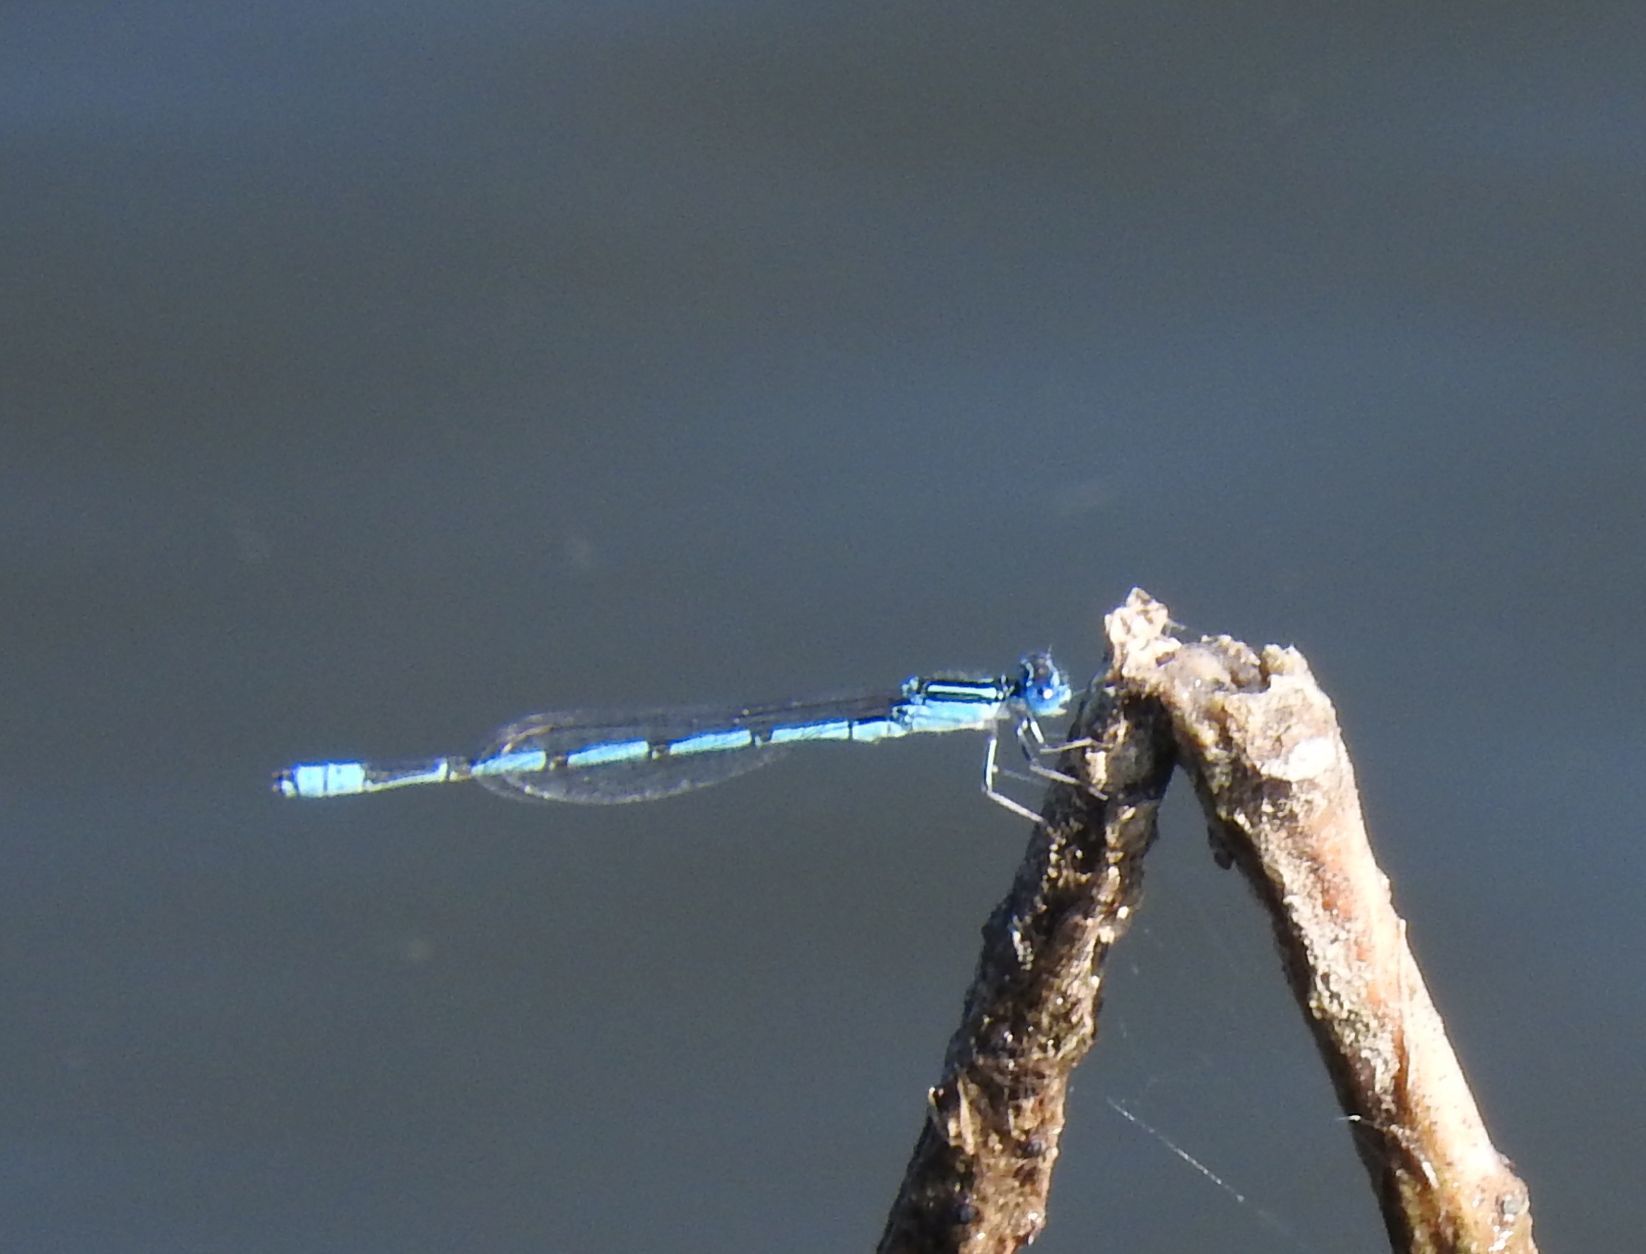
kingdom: Animalia
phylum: Arthropoda
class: Insecta
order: Odonata
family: Coenagrionidae
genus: Enallagma
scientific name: Enallagma basidens
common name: Double-striped bluet
